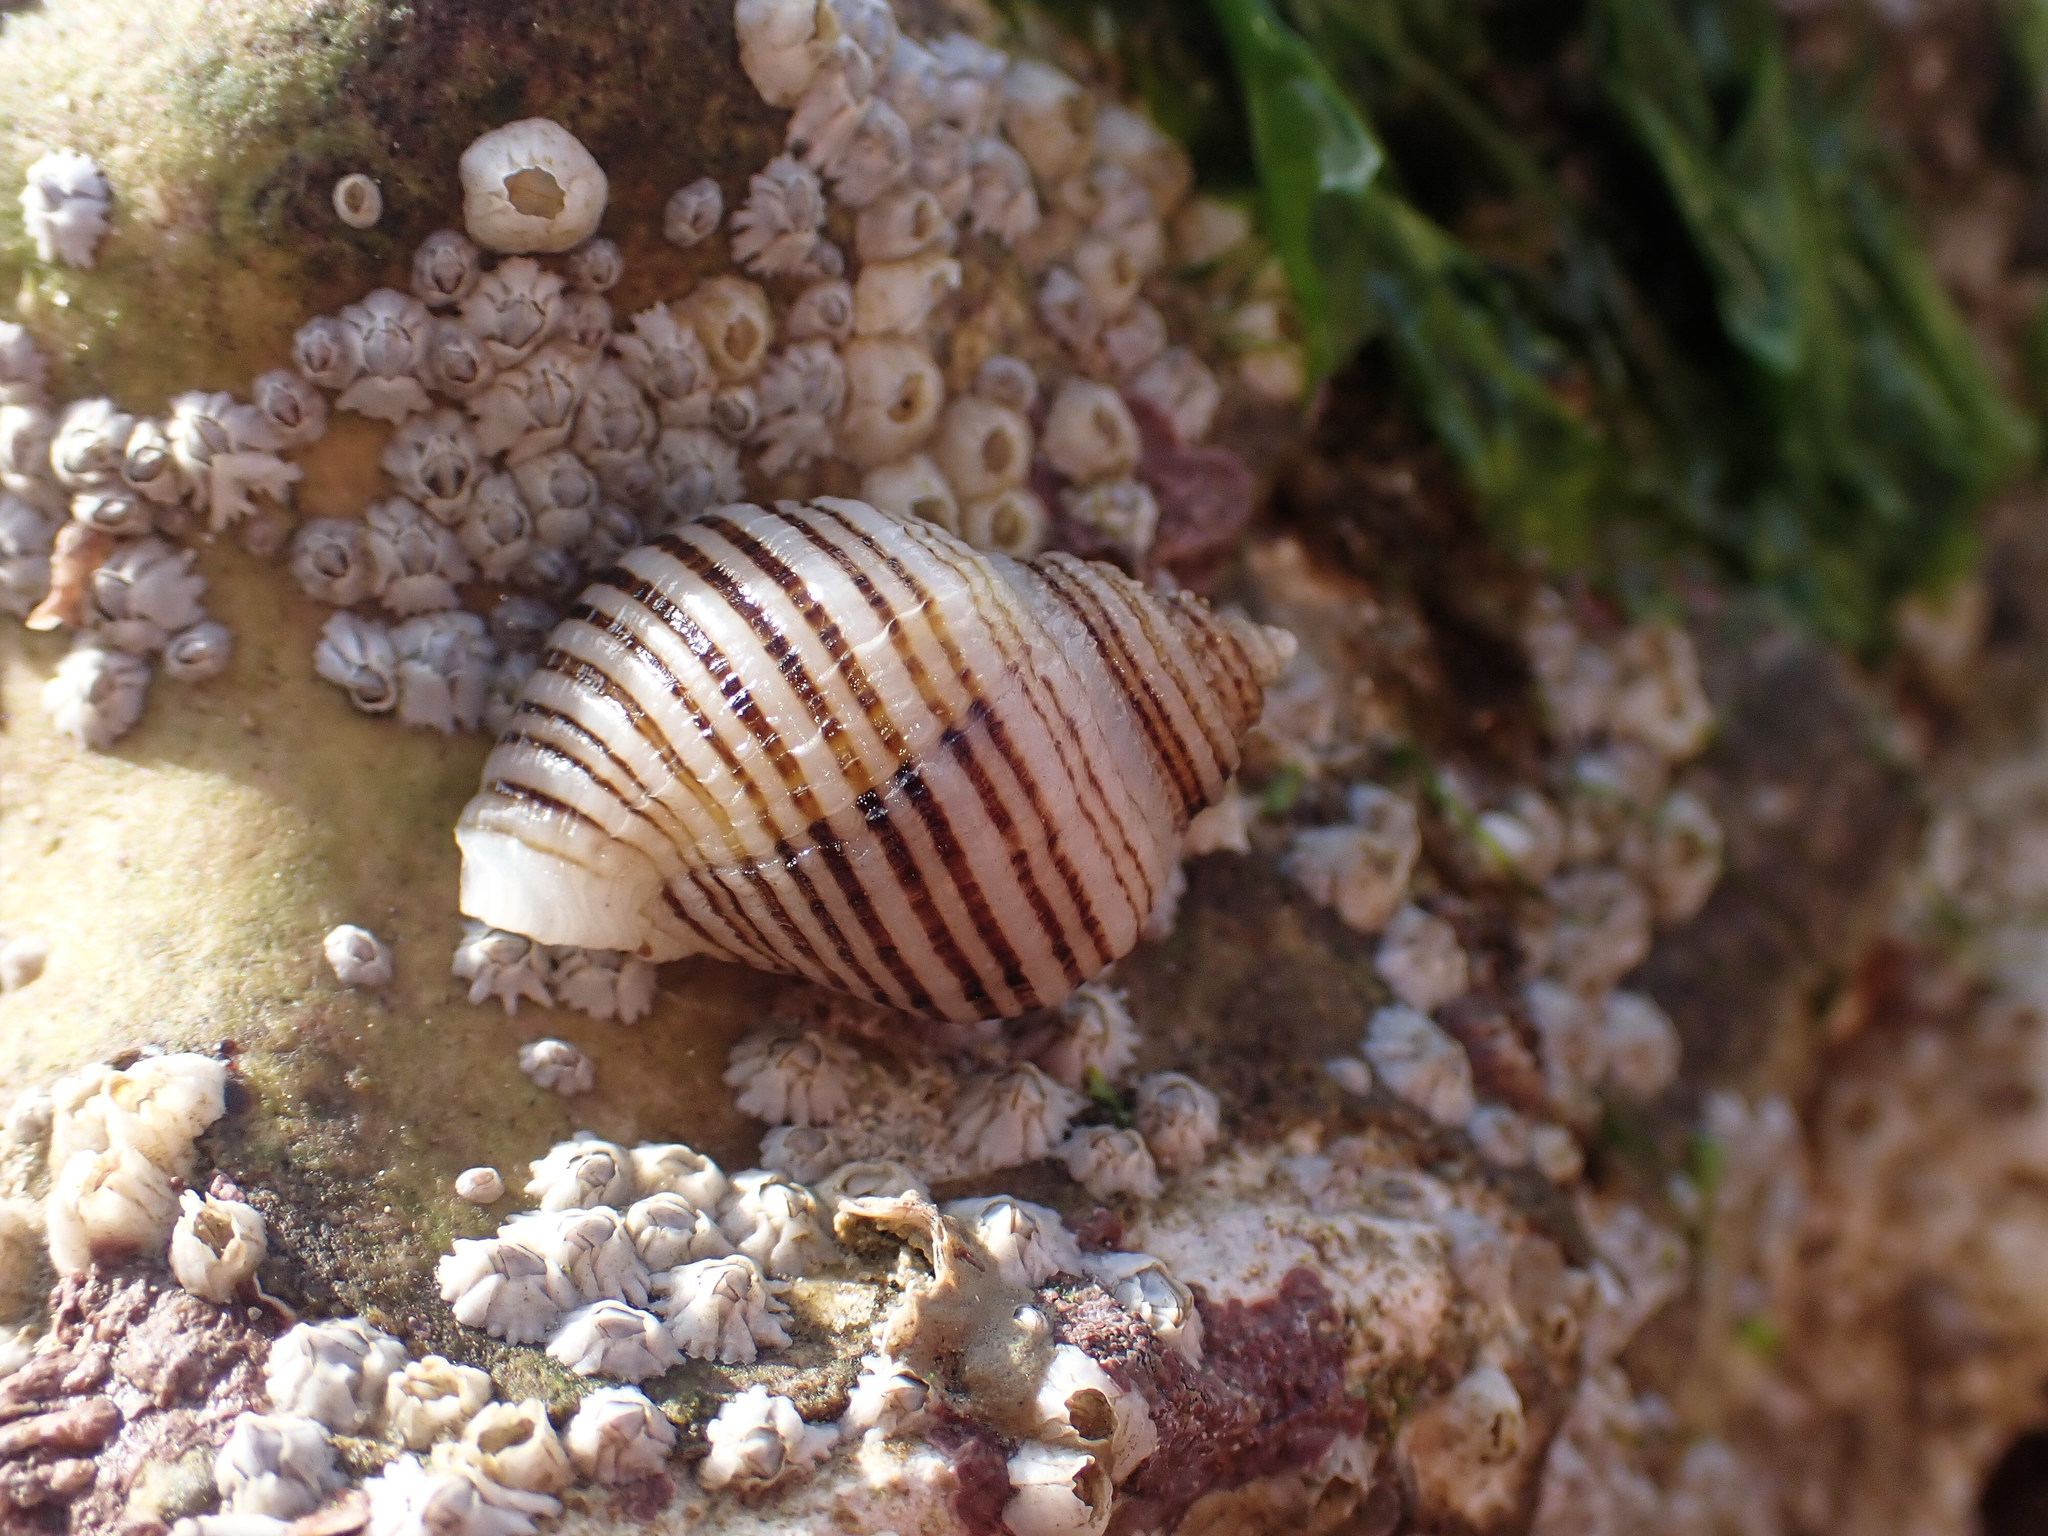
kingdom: Animalia
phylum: Mollusca
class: Gastropoda
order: Neogastropoda
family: Muricidae
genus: Nucella
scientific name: Nucella lapillus
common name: Dog whelk
